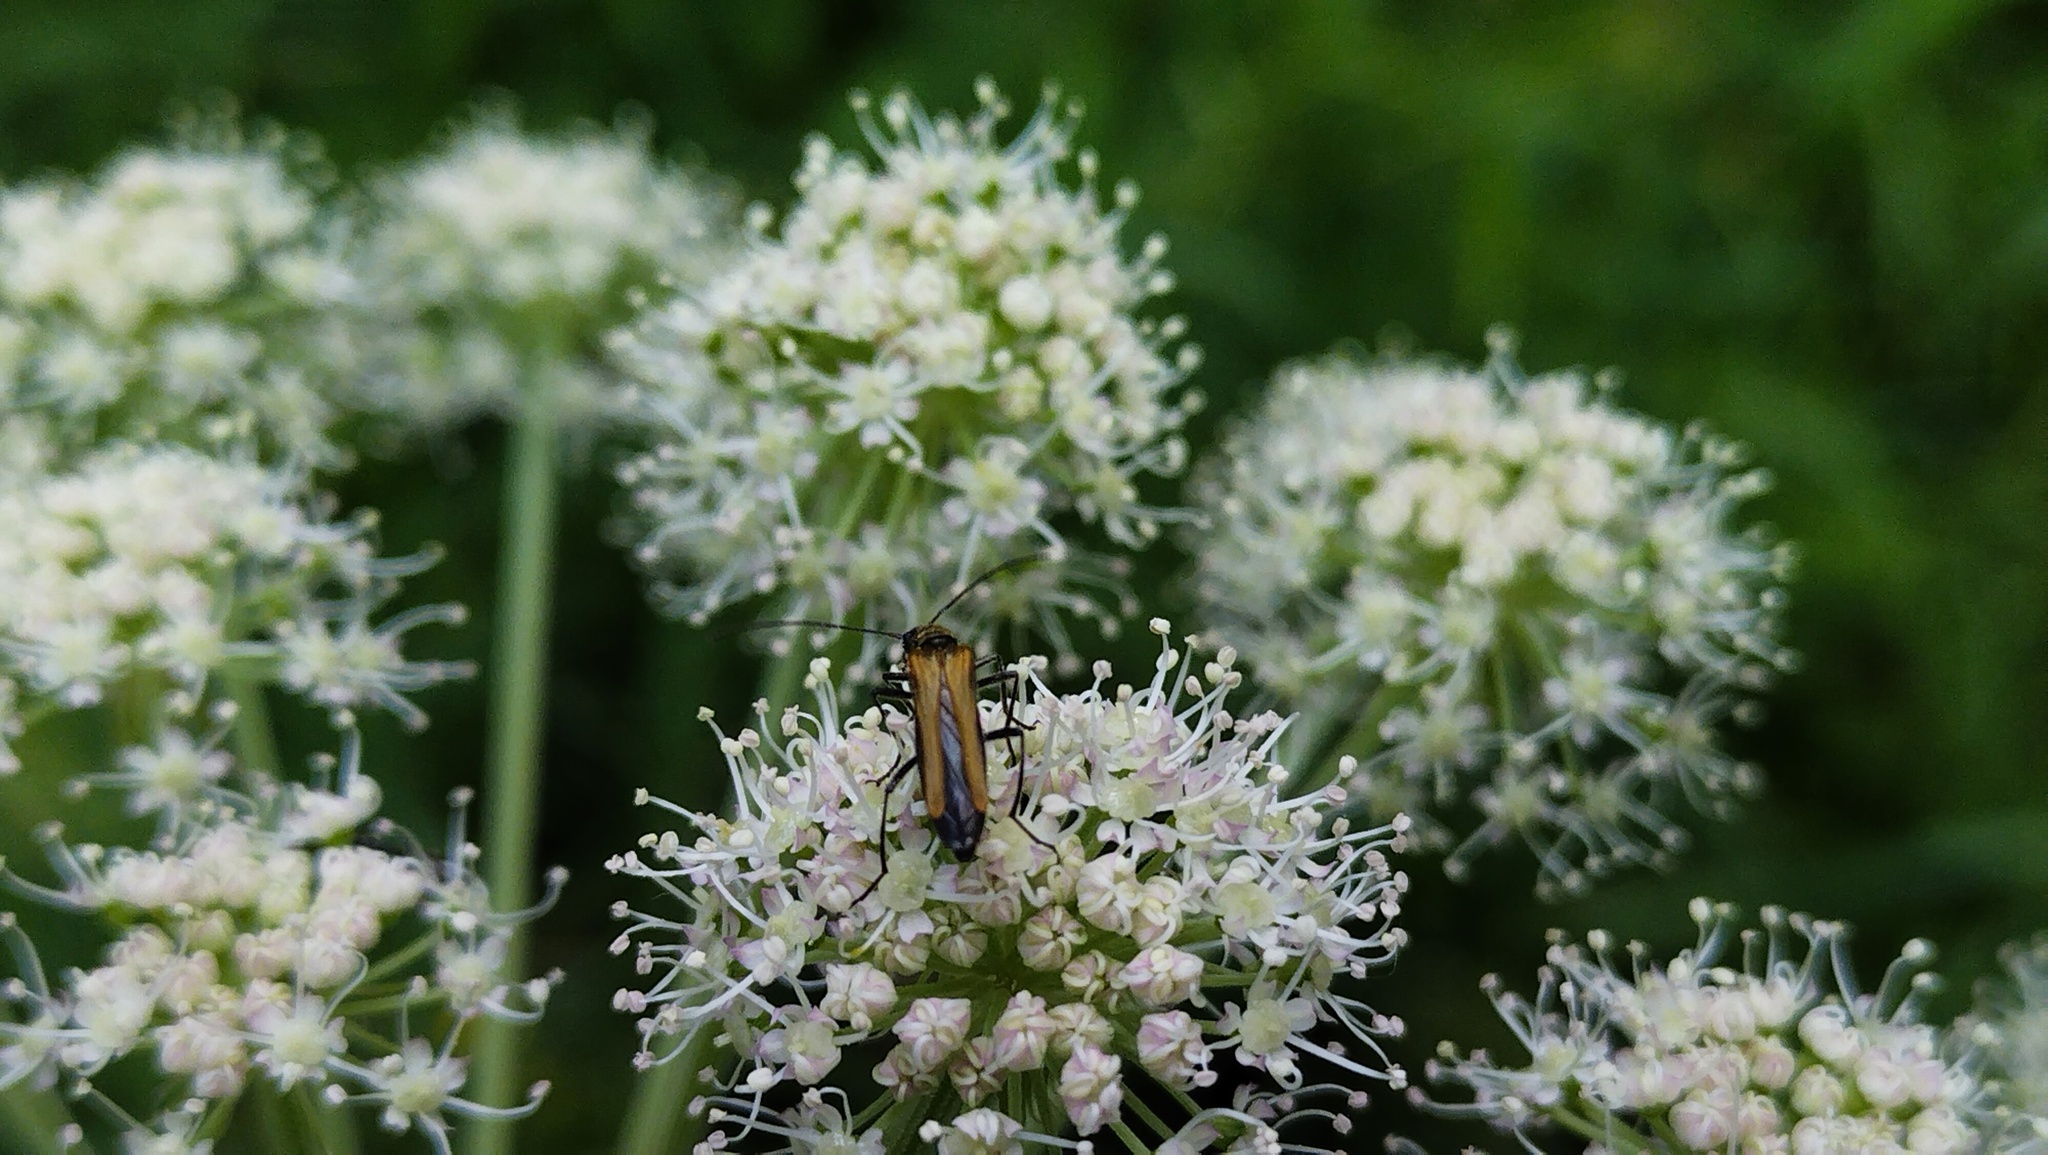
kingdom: Animalia
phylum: Arthropoda
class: Insecta
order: Coleoptera
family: Oedemeridae
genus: Oedemera
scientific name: Oedemera femorata
